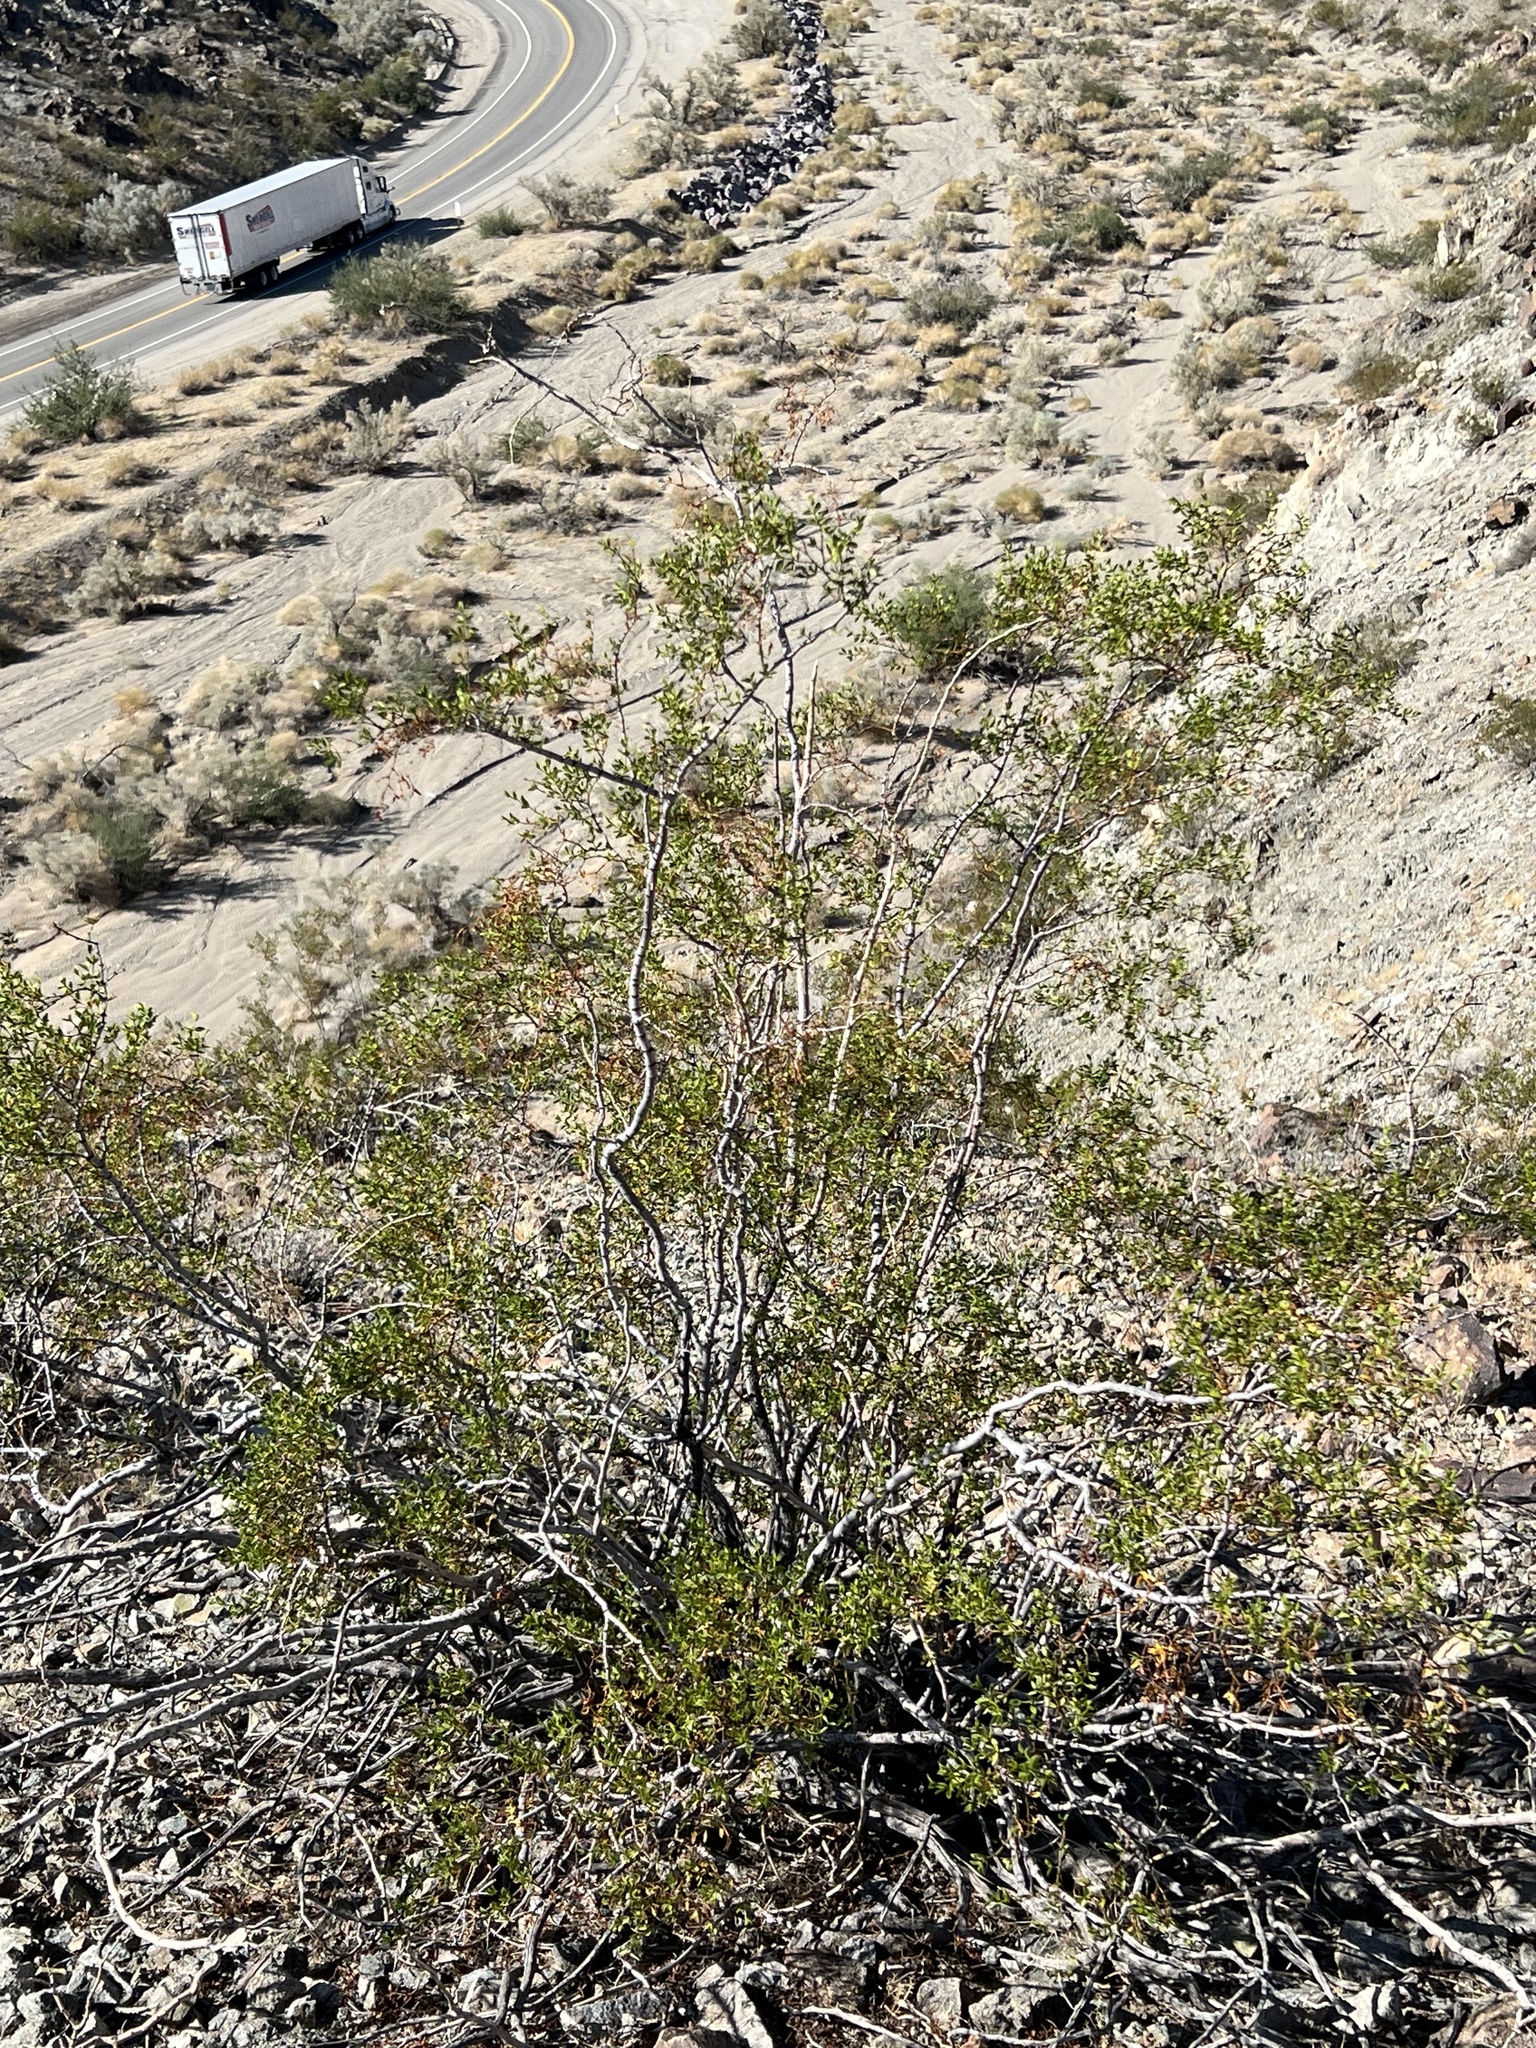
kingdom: Plantae
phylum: Tracheophyta
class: Magnoliopsida
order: Zygophyllales
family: Zygophyllaceae
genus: Larrea
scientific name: Larrea tridentata
